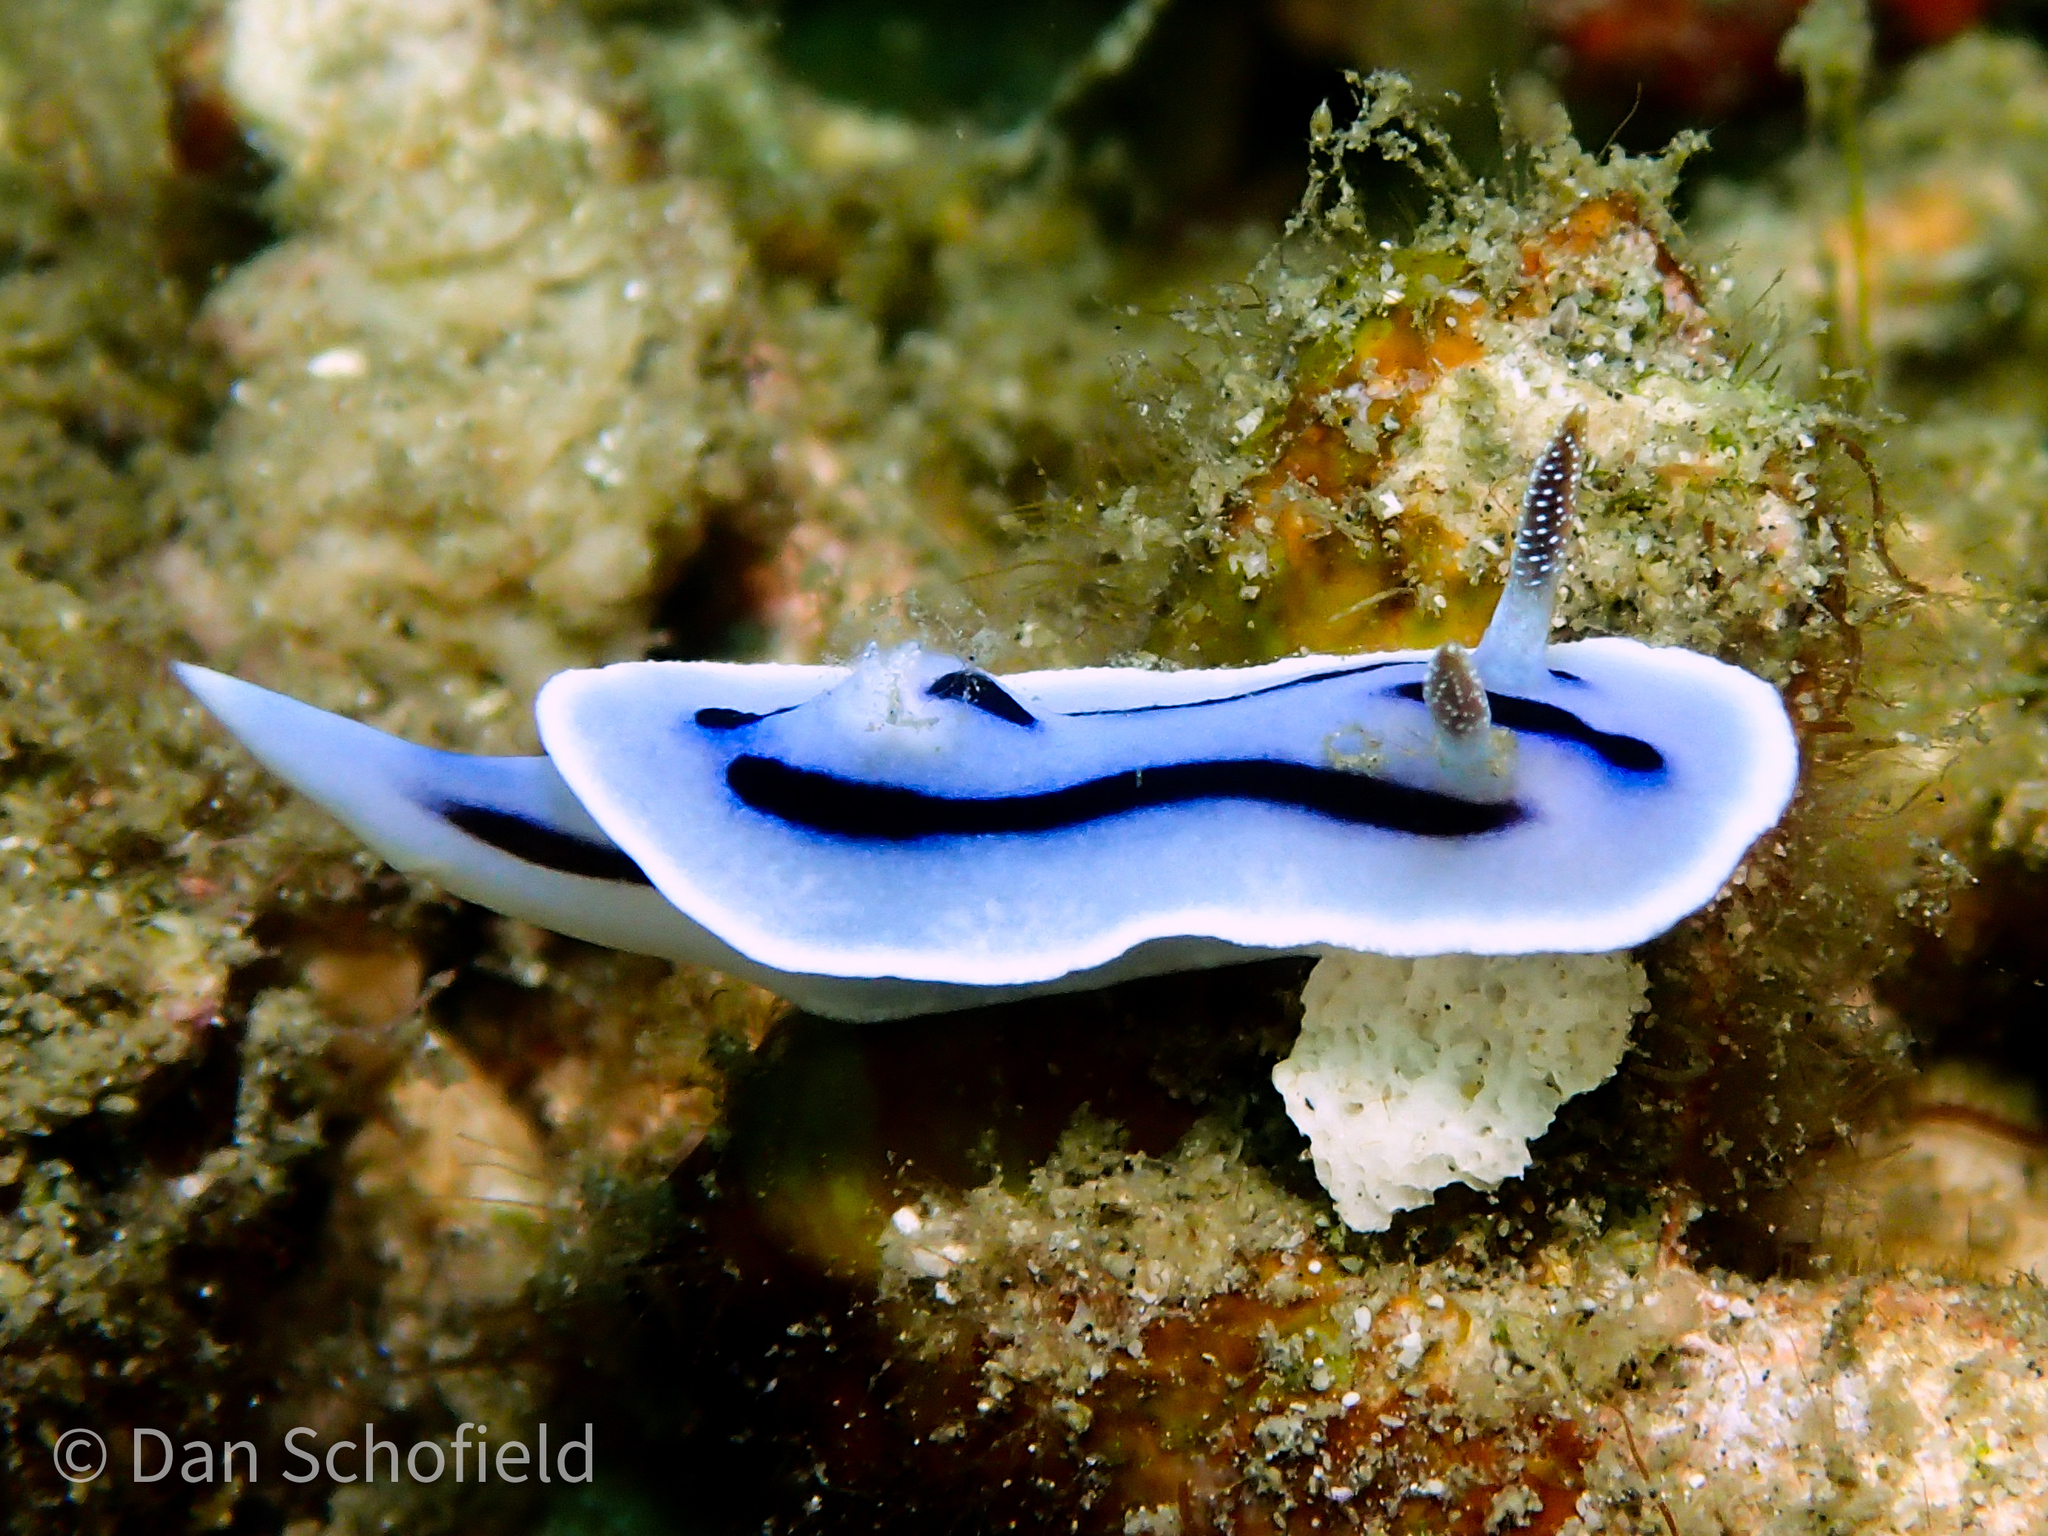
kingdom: Animalia
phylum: Mollusca
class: Gastropoda
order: Nudibranchia
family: Chromodorididae
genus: Chromodoris
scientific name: Chromodoris willani
